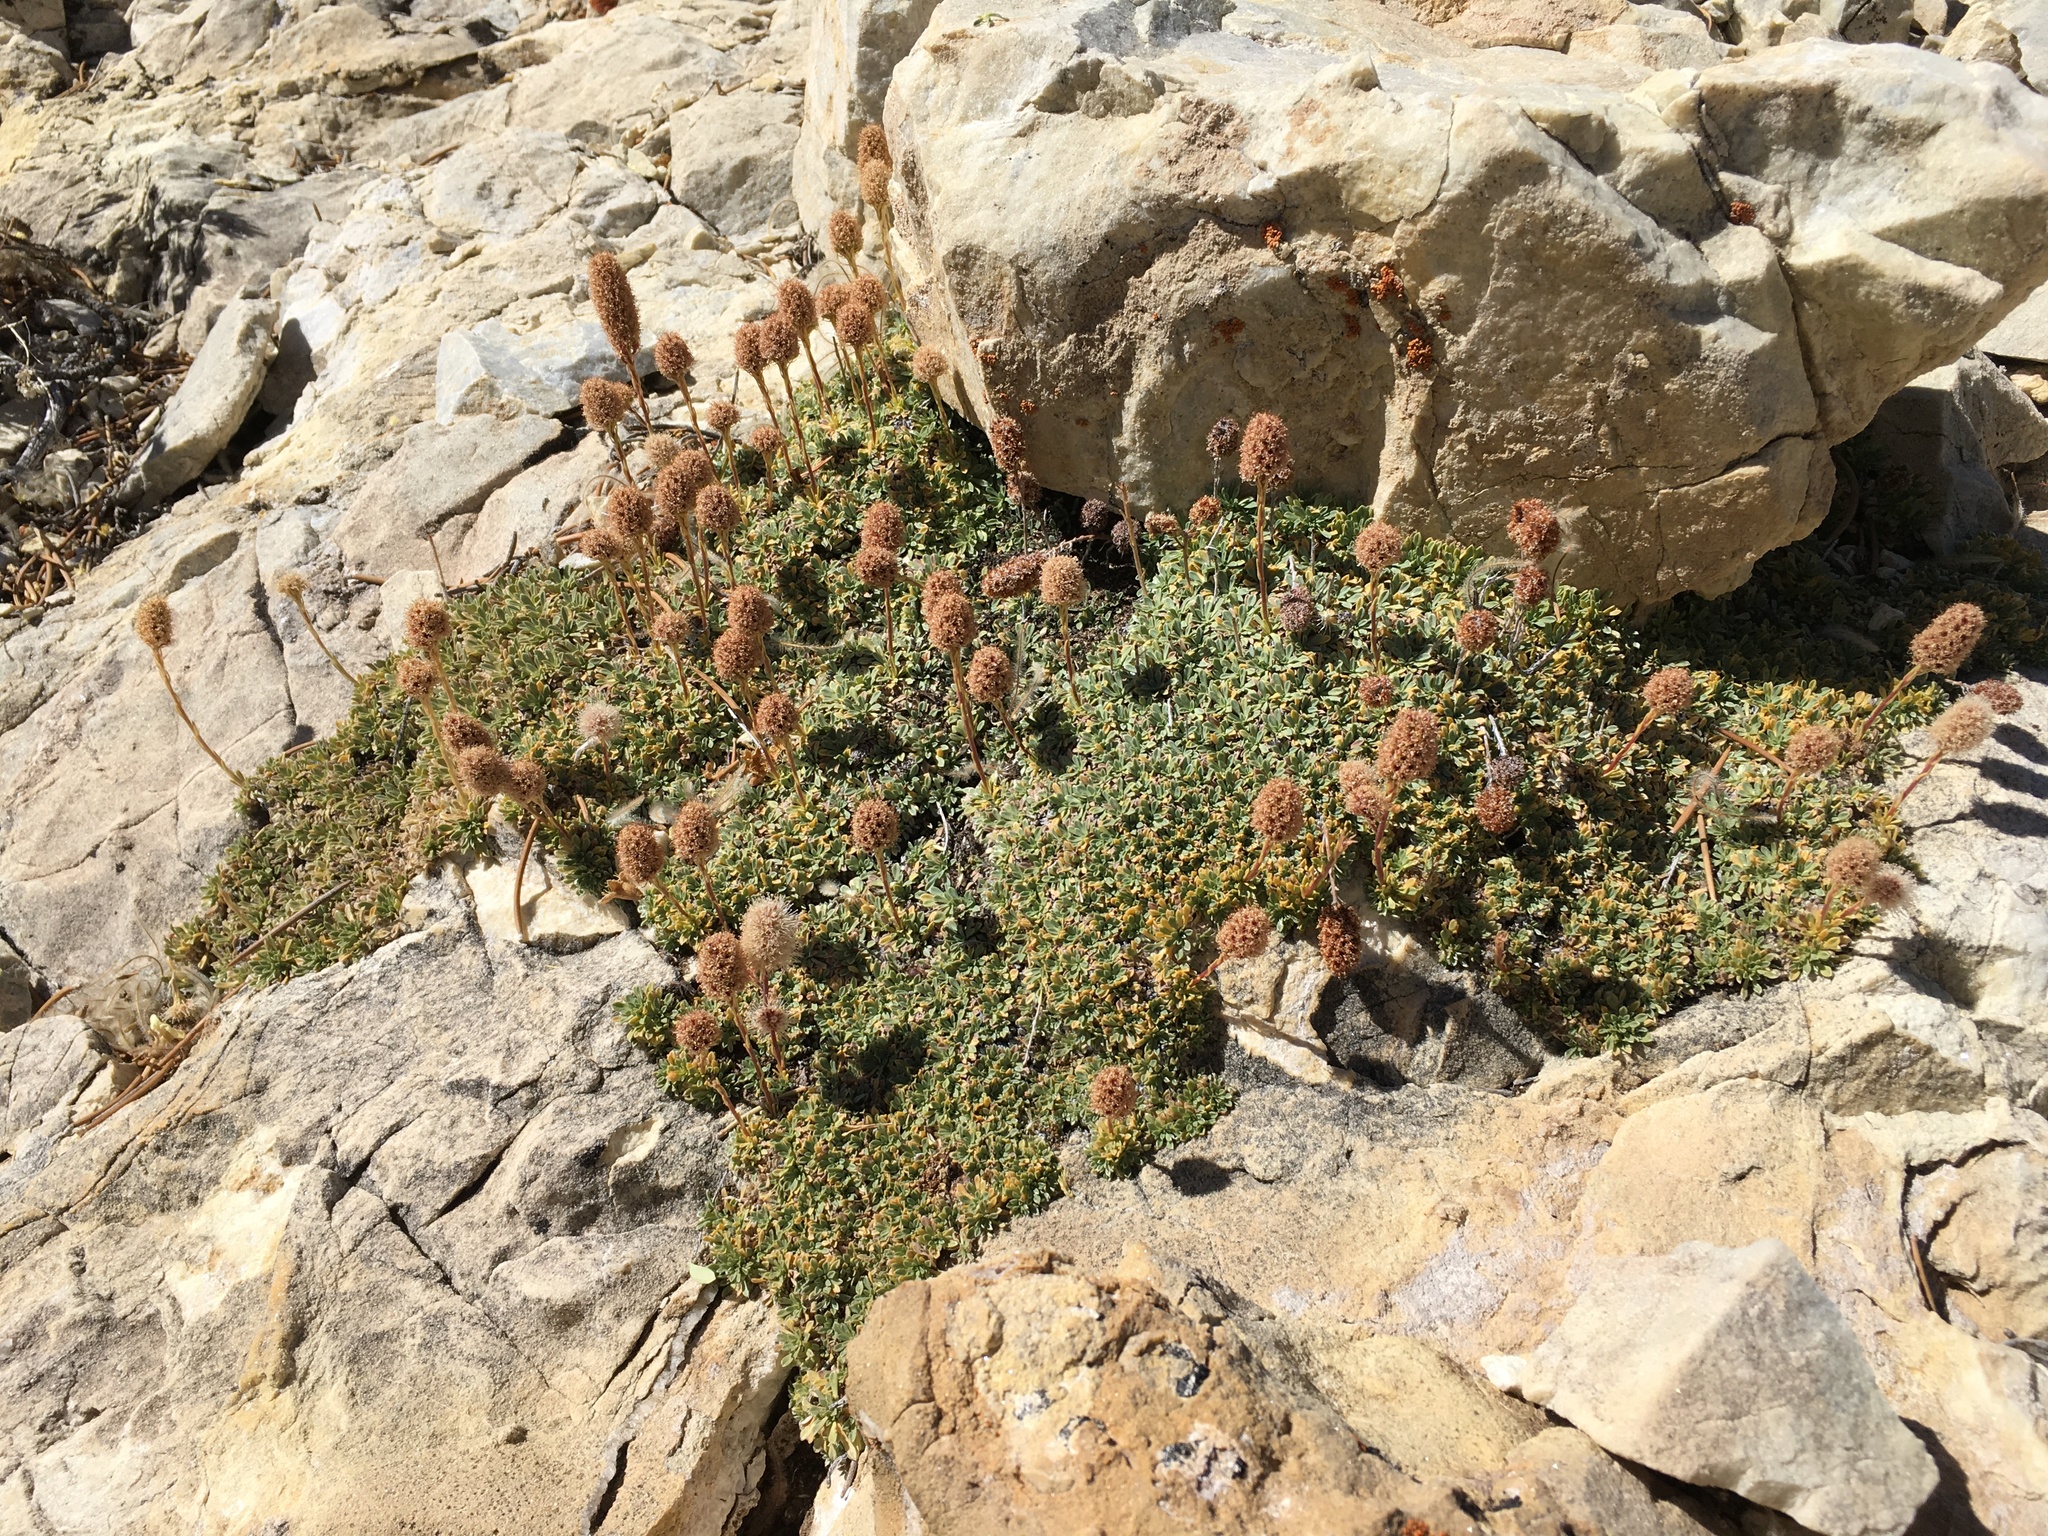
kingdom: Plantae
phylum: Tracheophyta
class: Magnoliopsida
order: Rosales
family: Rosaceae
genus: Petrophytum
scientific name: Petrophytum caespitosum
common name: Mat rockspirea
